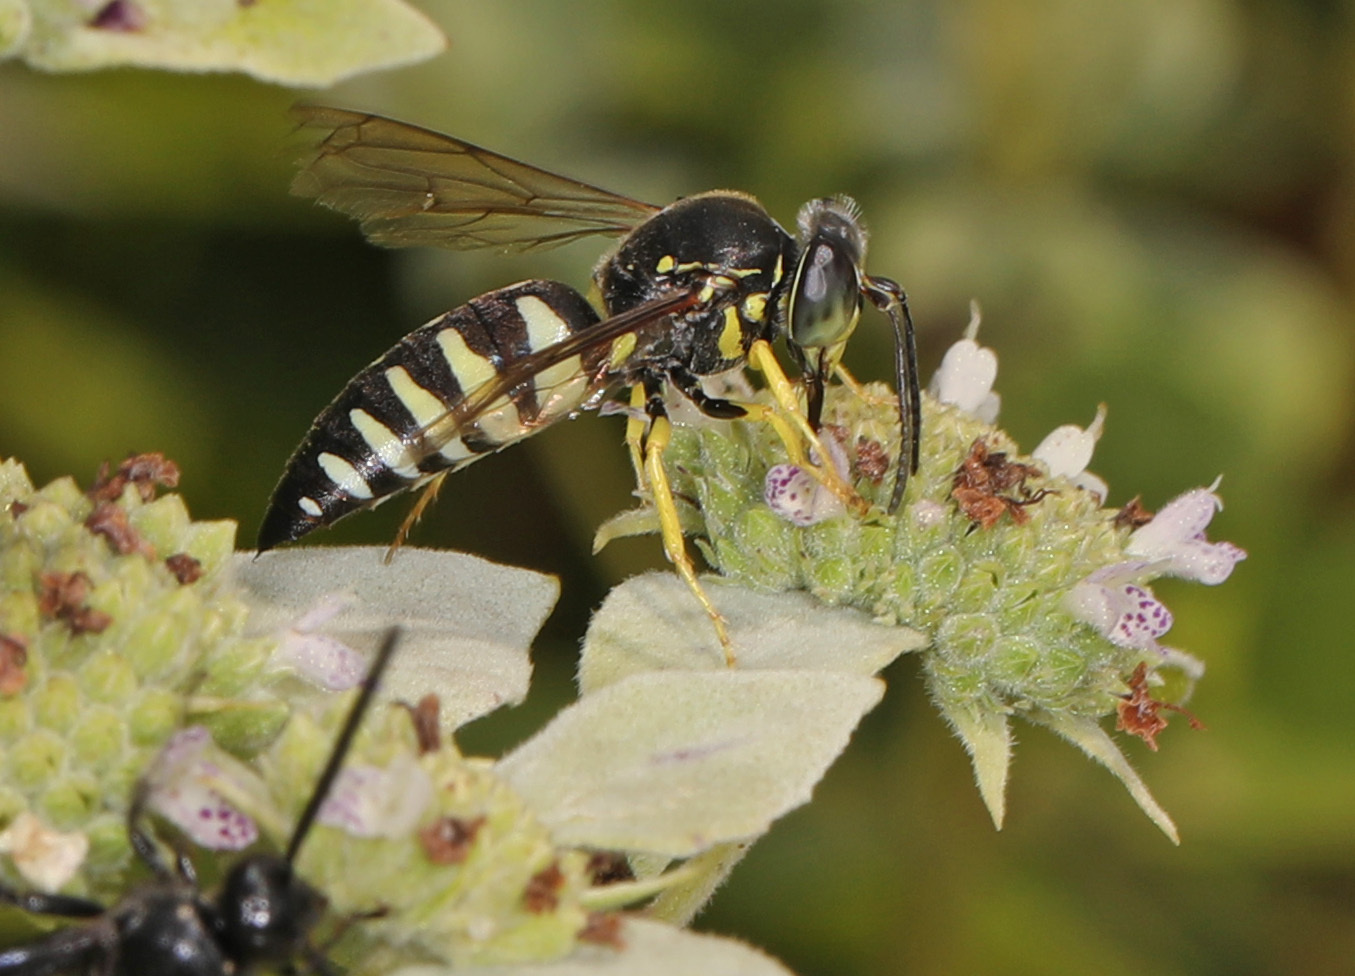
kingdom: Animalia
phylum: Arthropoda
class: Insecta
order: Hymenoptera
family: Crabronidae
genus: Bicyrtes
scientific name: Bicyrtes quadrifasciatus
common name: Four-banded stink bug hunter wasp
